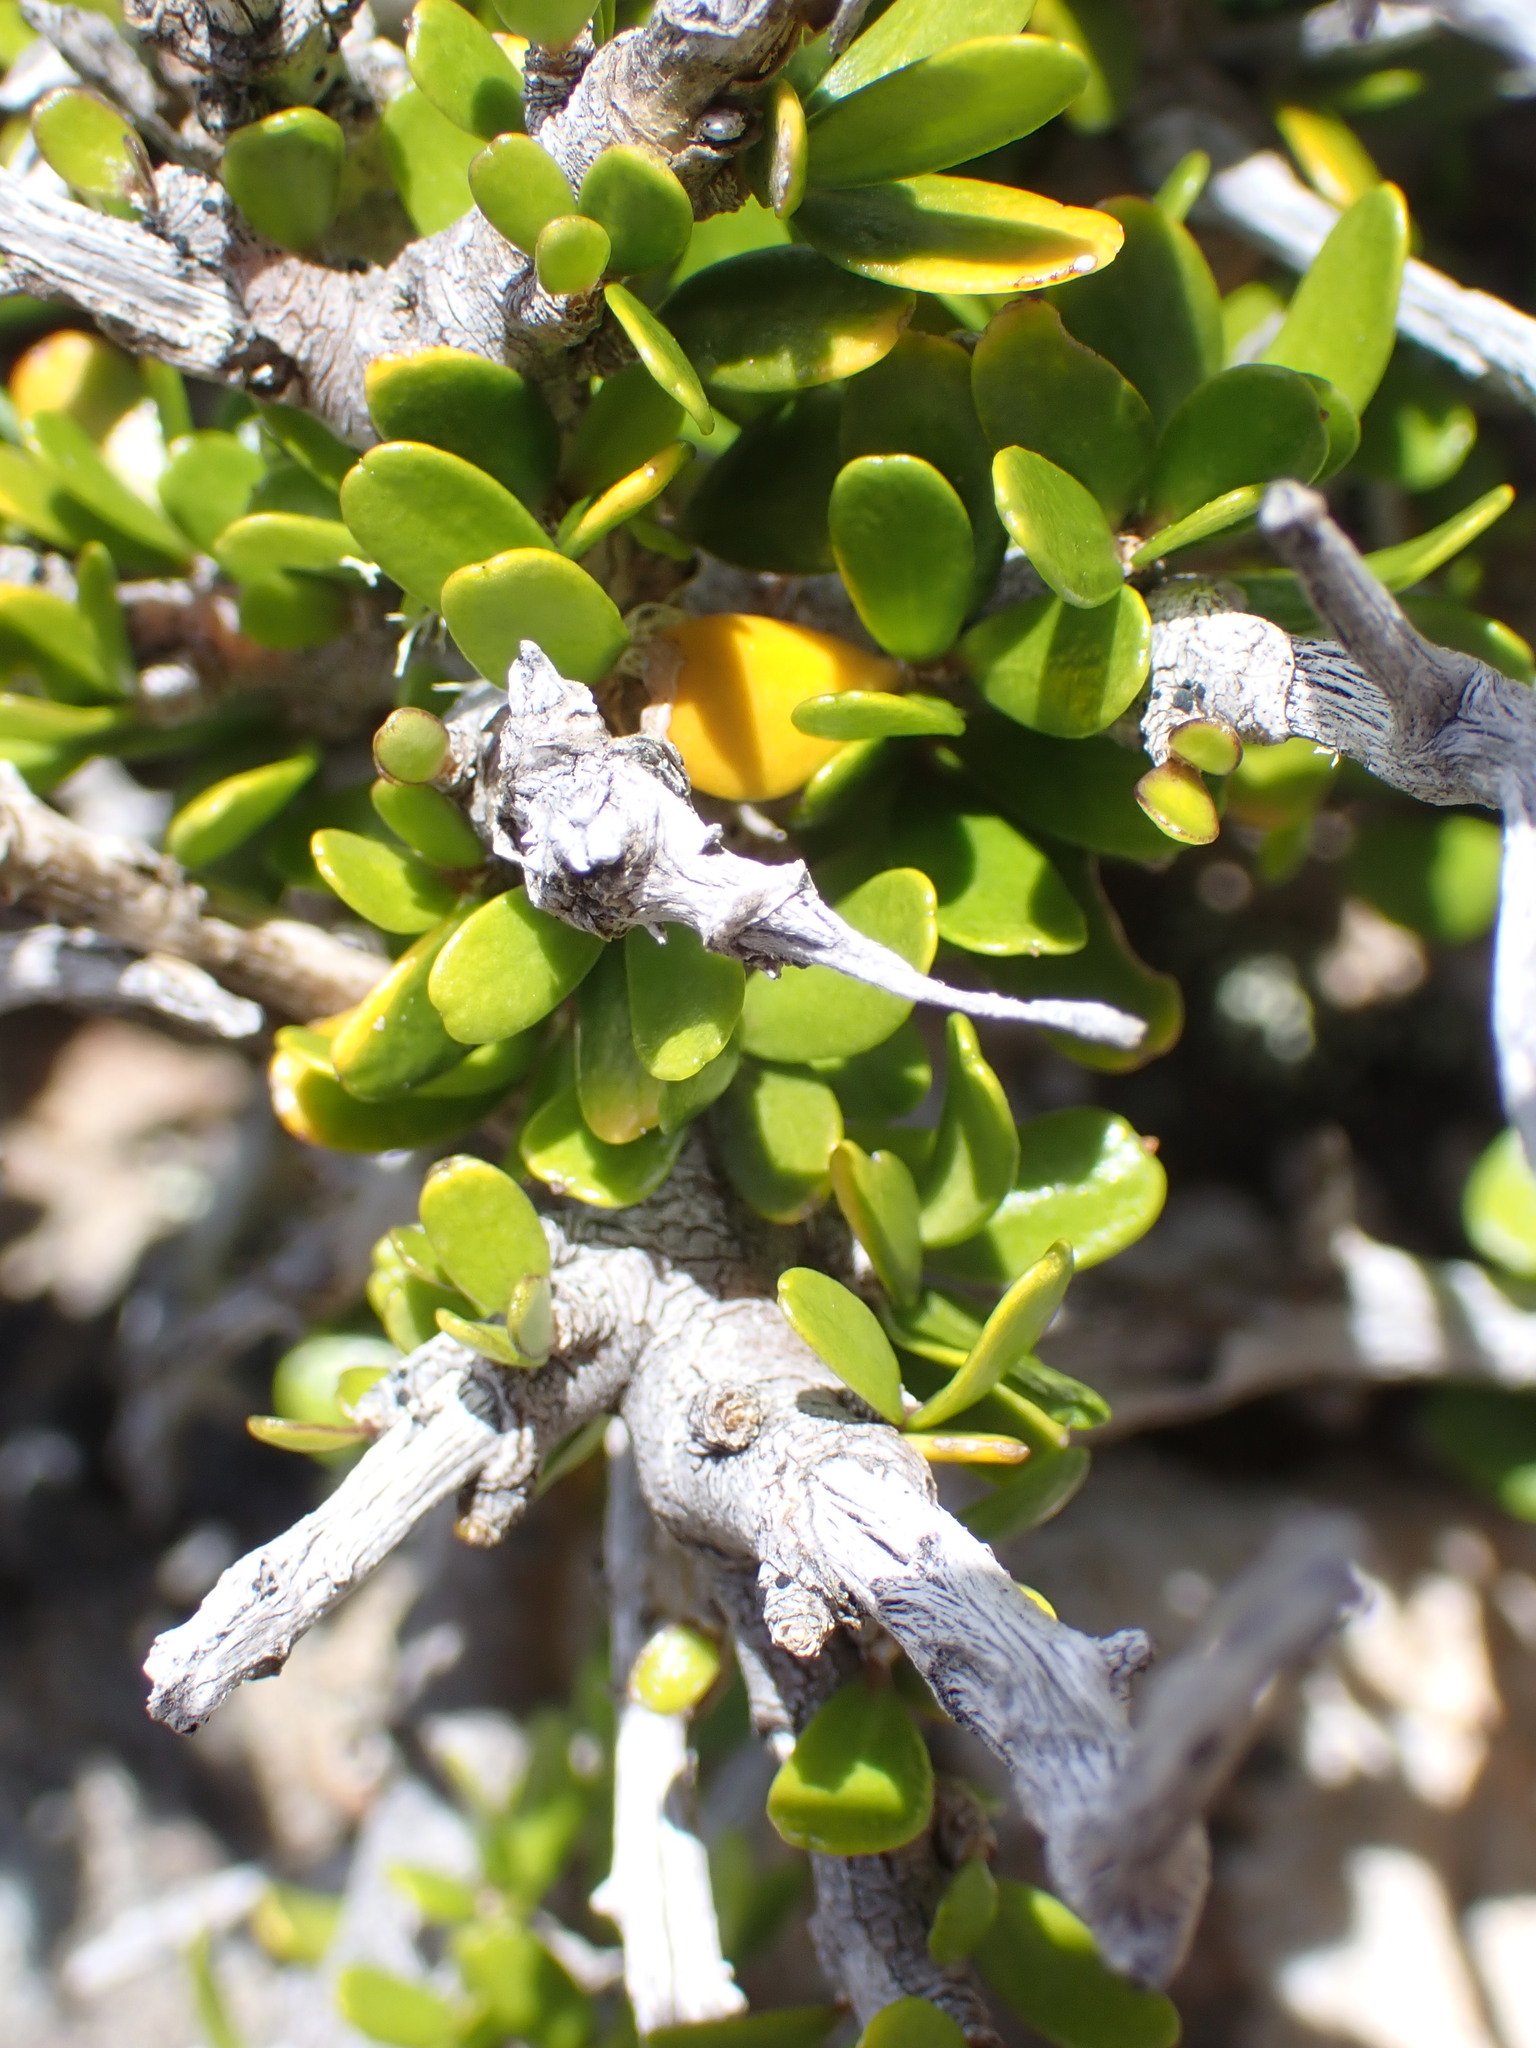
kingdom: Plantae
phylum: Tracheophyta
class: Magnoliopsida
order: Malpighiales
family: Violaceae
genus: Melicytus
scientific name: Melicytus alpinus
